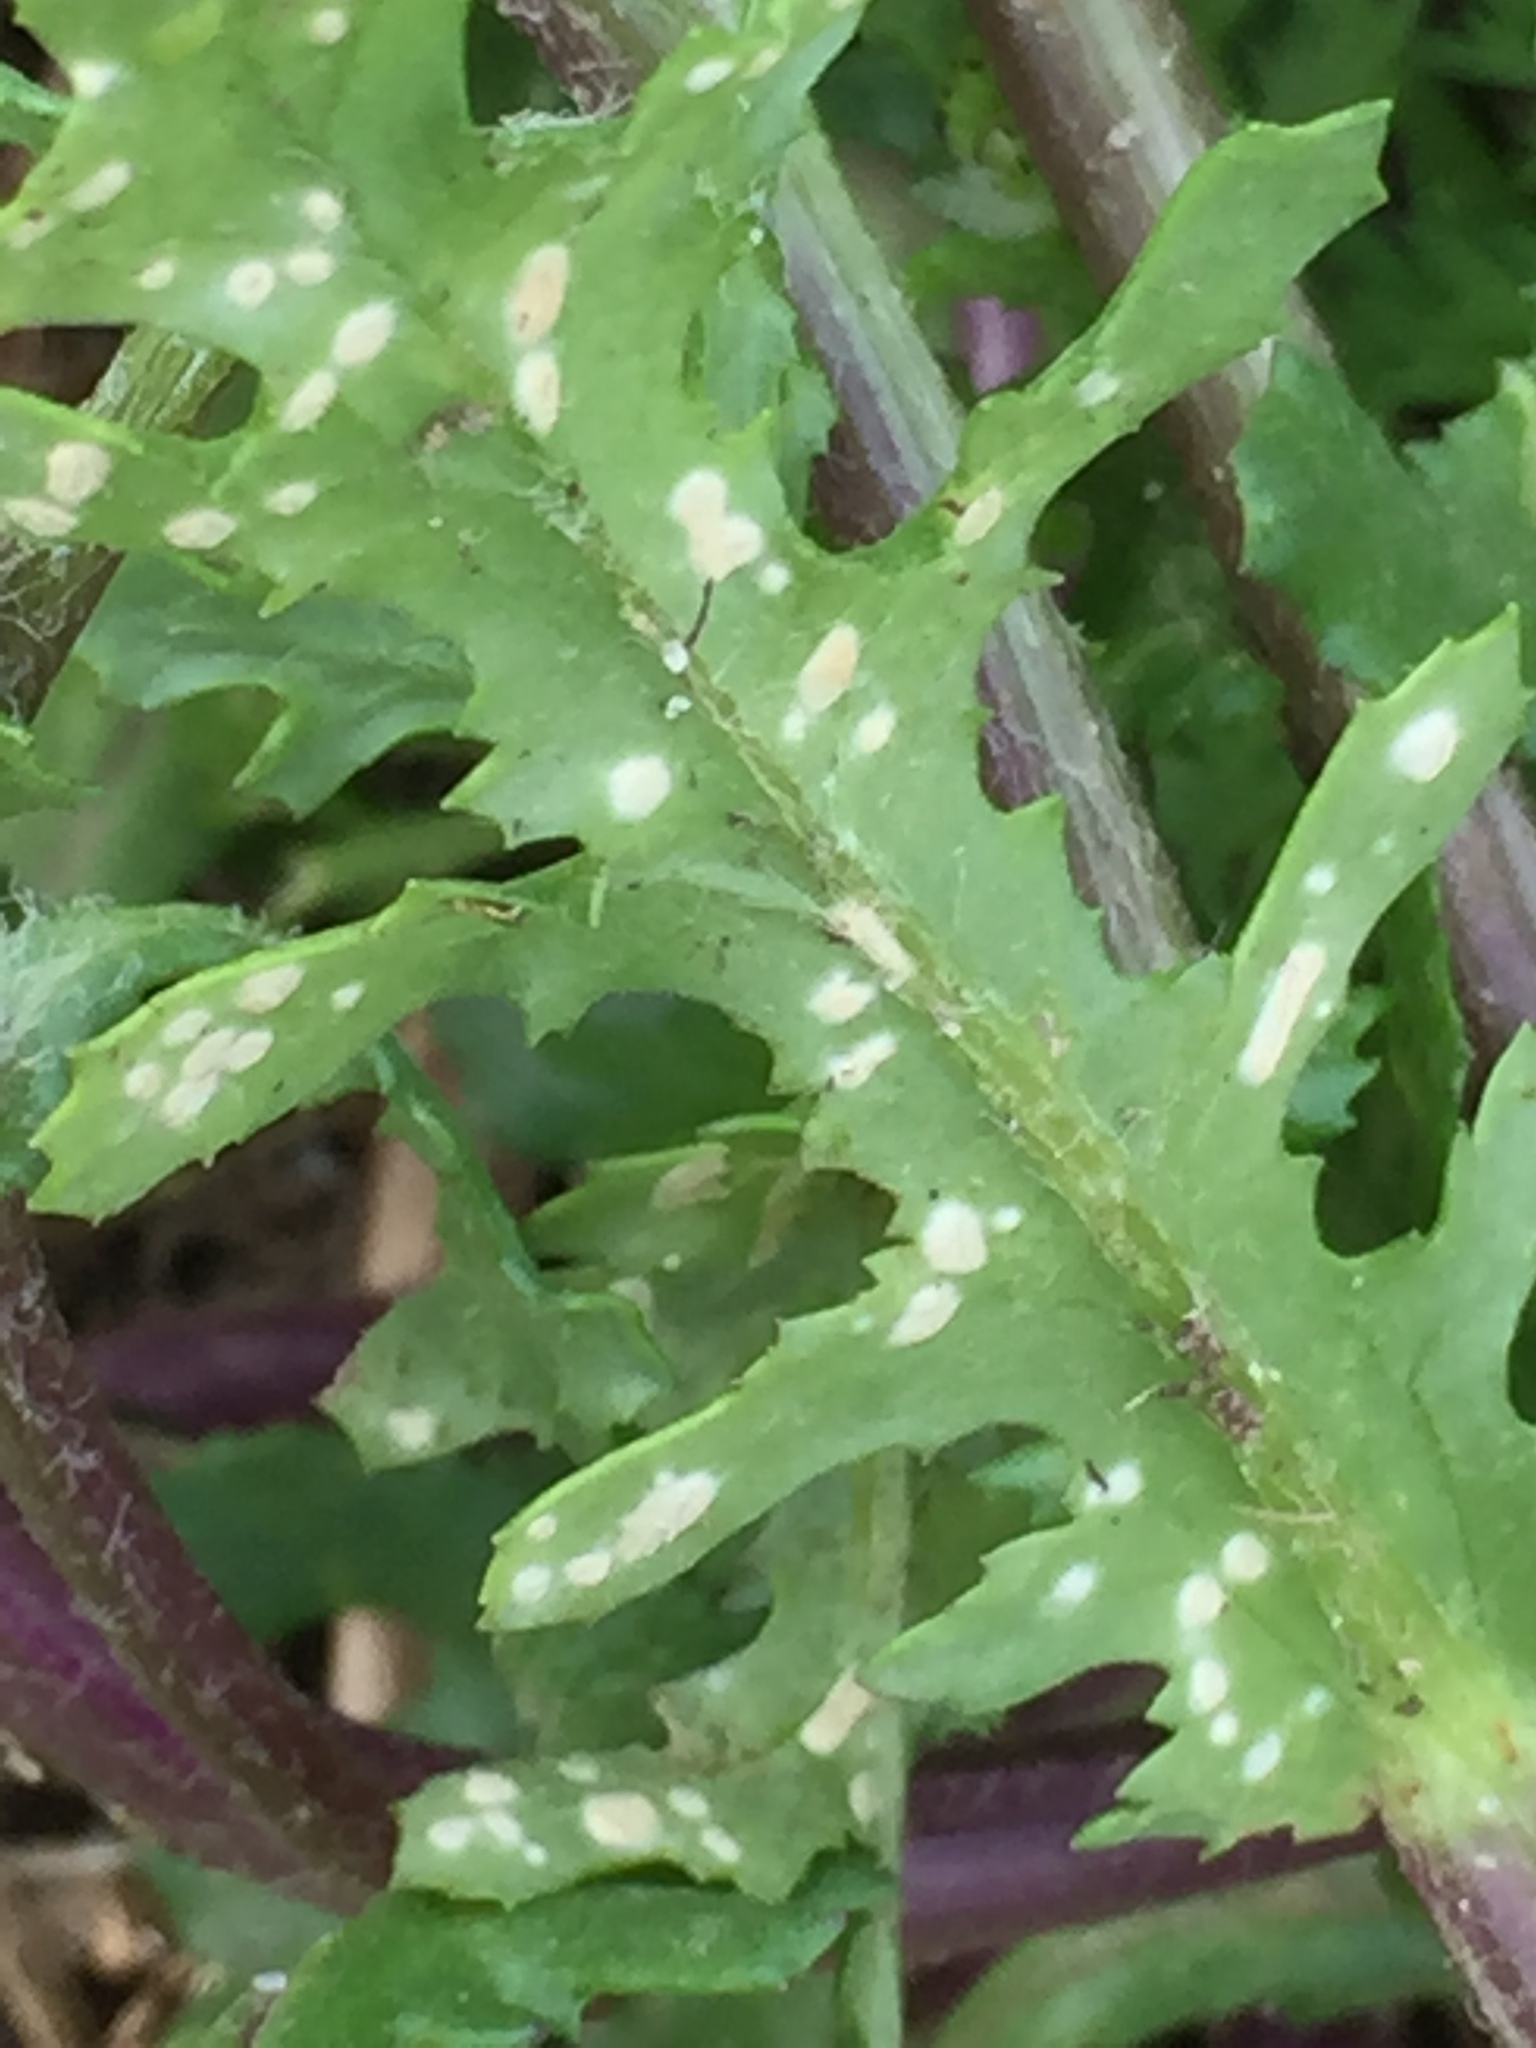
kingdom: Chromista
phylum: Oomycota
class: Peronosporea
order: Albuginales
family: Albuginaceae
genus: Pustula
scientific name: Pustula
